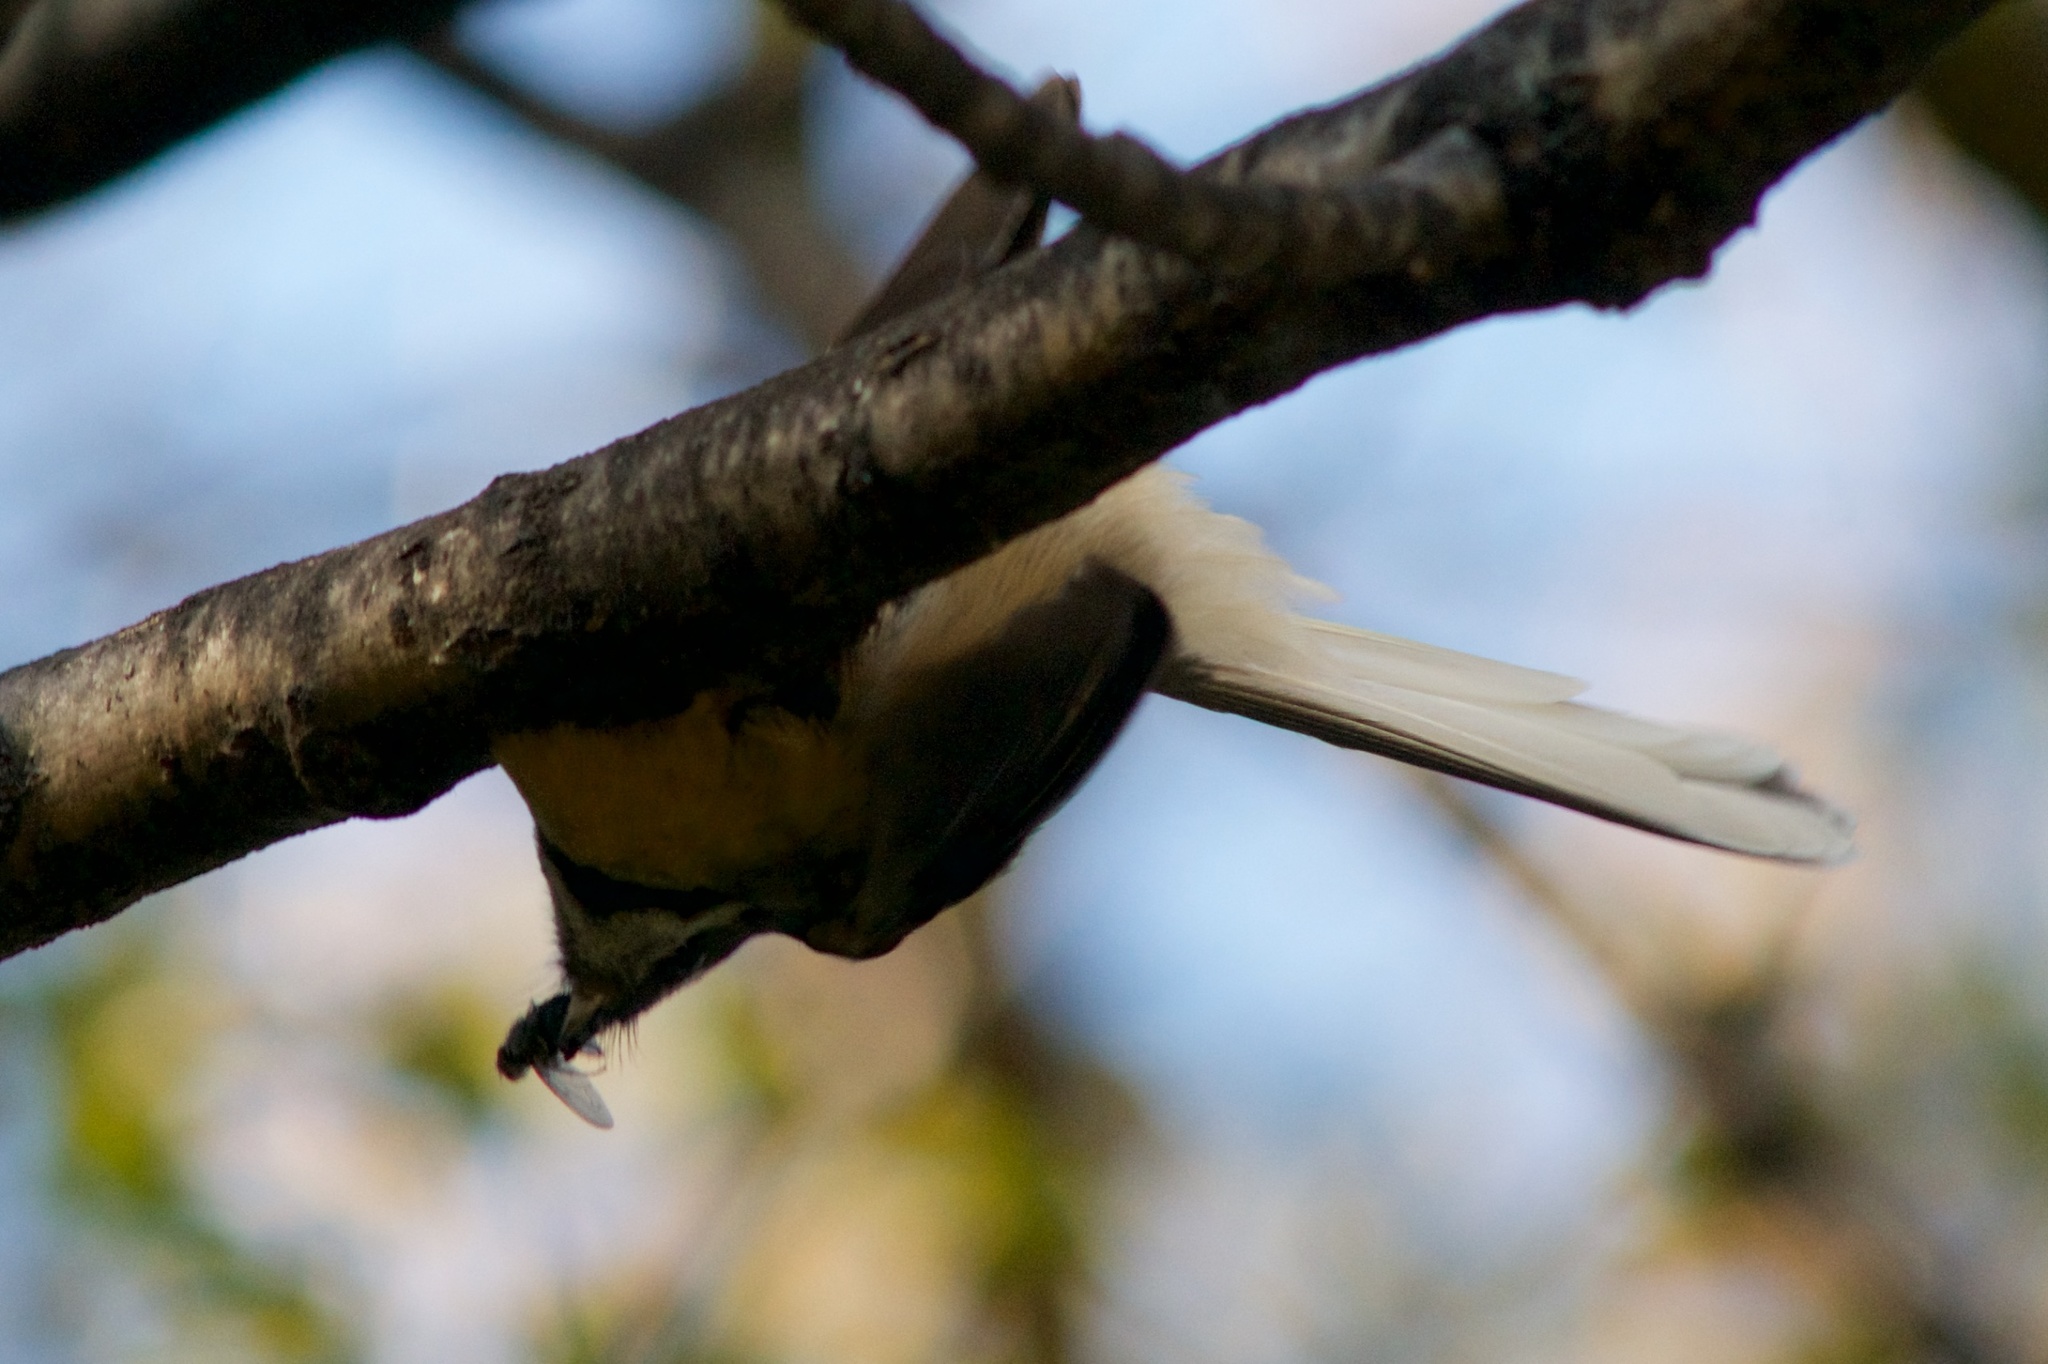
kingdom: Animalia
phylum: Chordata
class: Aves
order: Passeriformes
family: Rhipiduridae
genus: Rhipidura
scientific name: Rhipidura fuliginosa
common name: New zealand fantail
